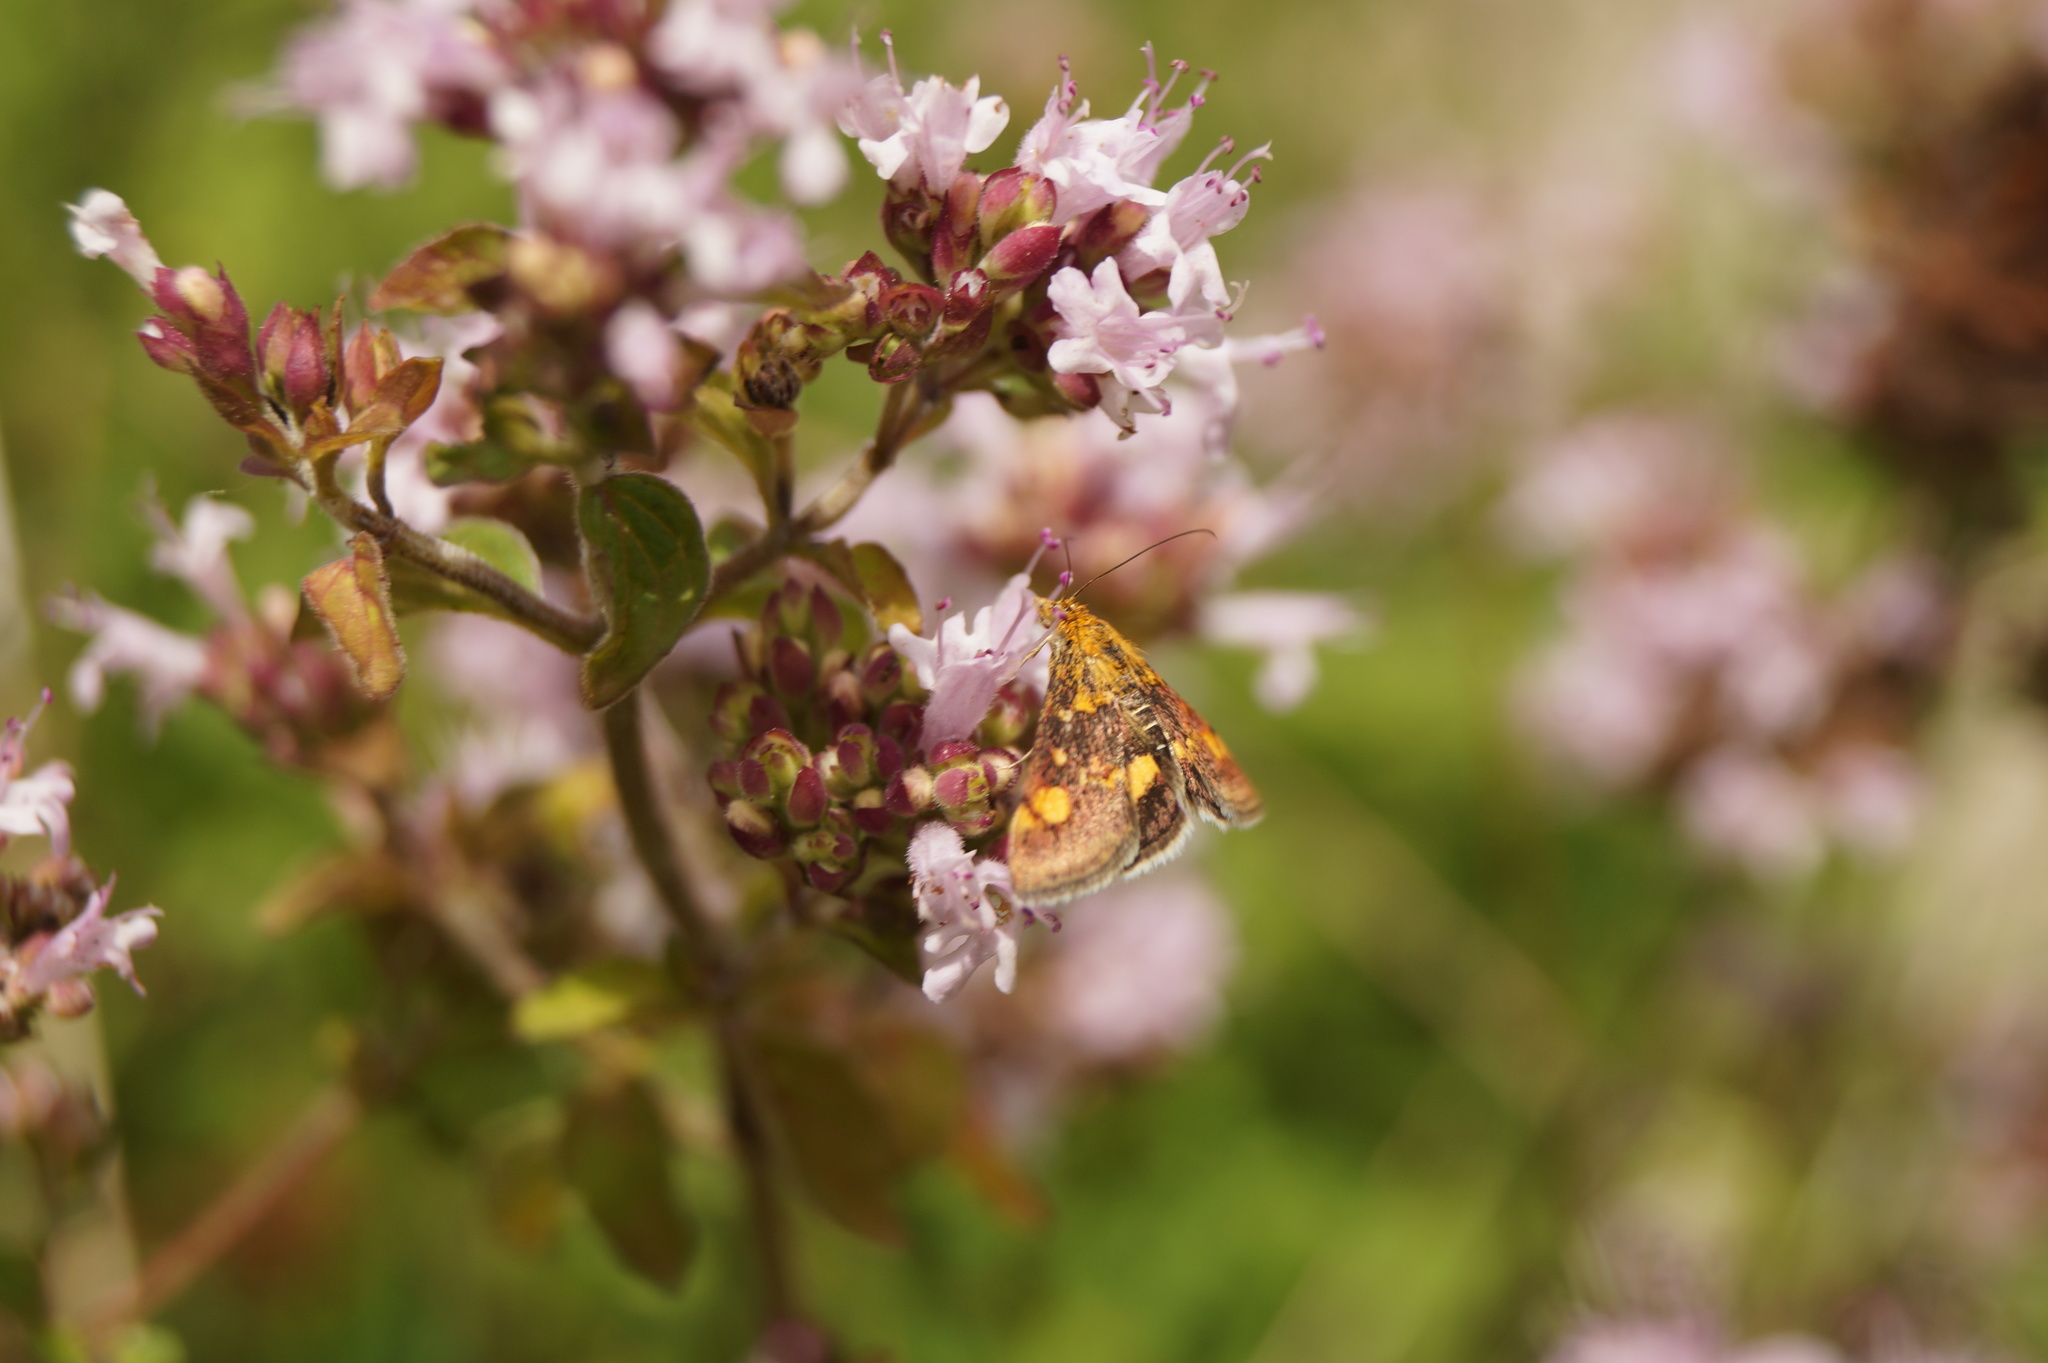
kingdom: Animalia
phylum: Arthropoda
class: Insecta
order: Lepidoptera
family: Crambidae
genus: Pyrausta
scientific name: Pyrausta aurata
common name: Small purple & gold
